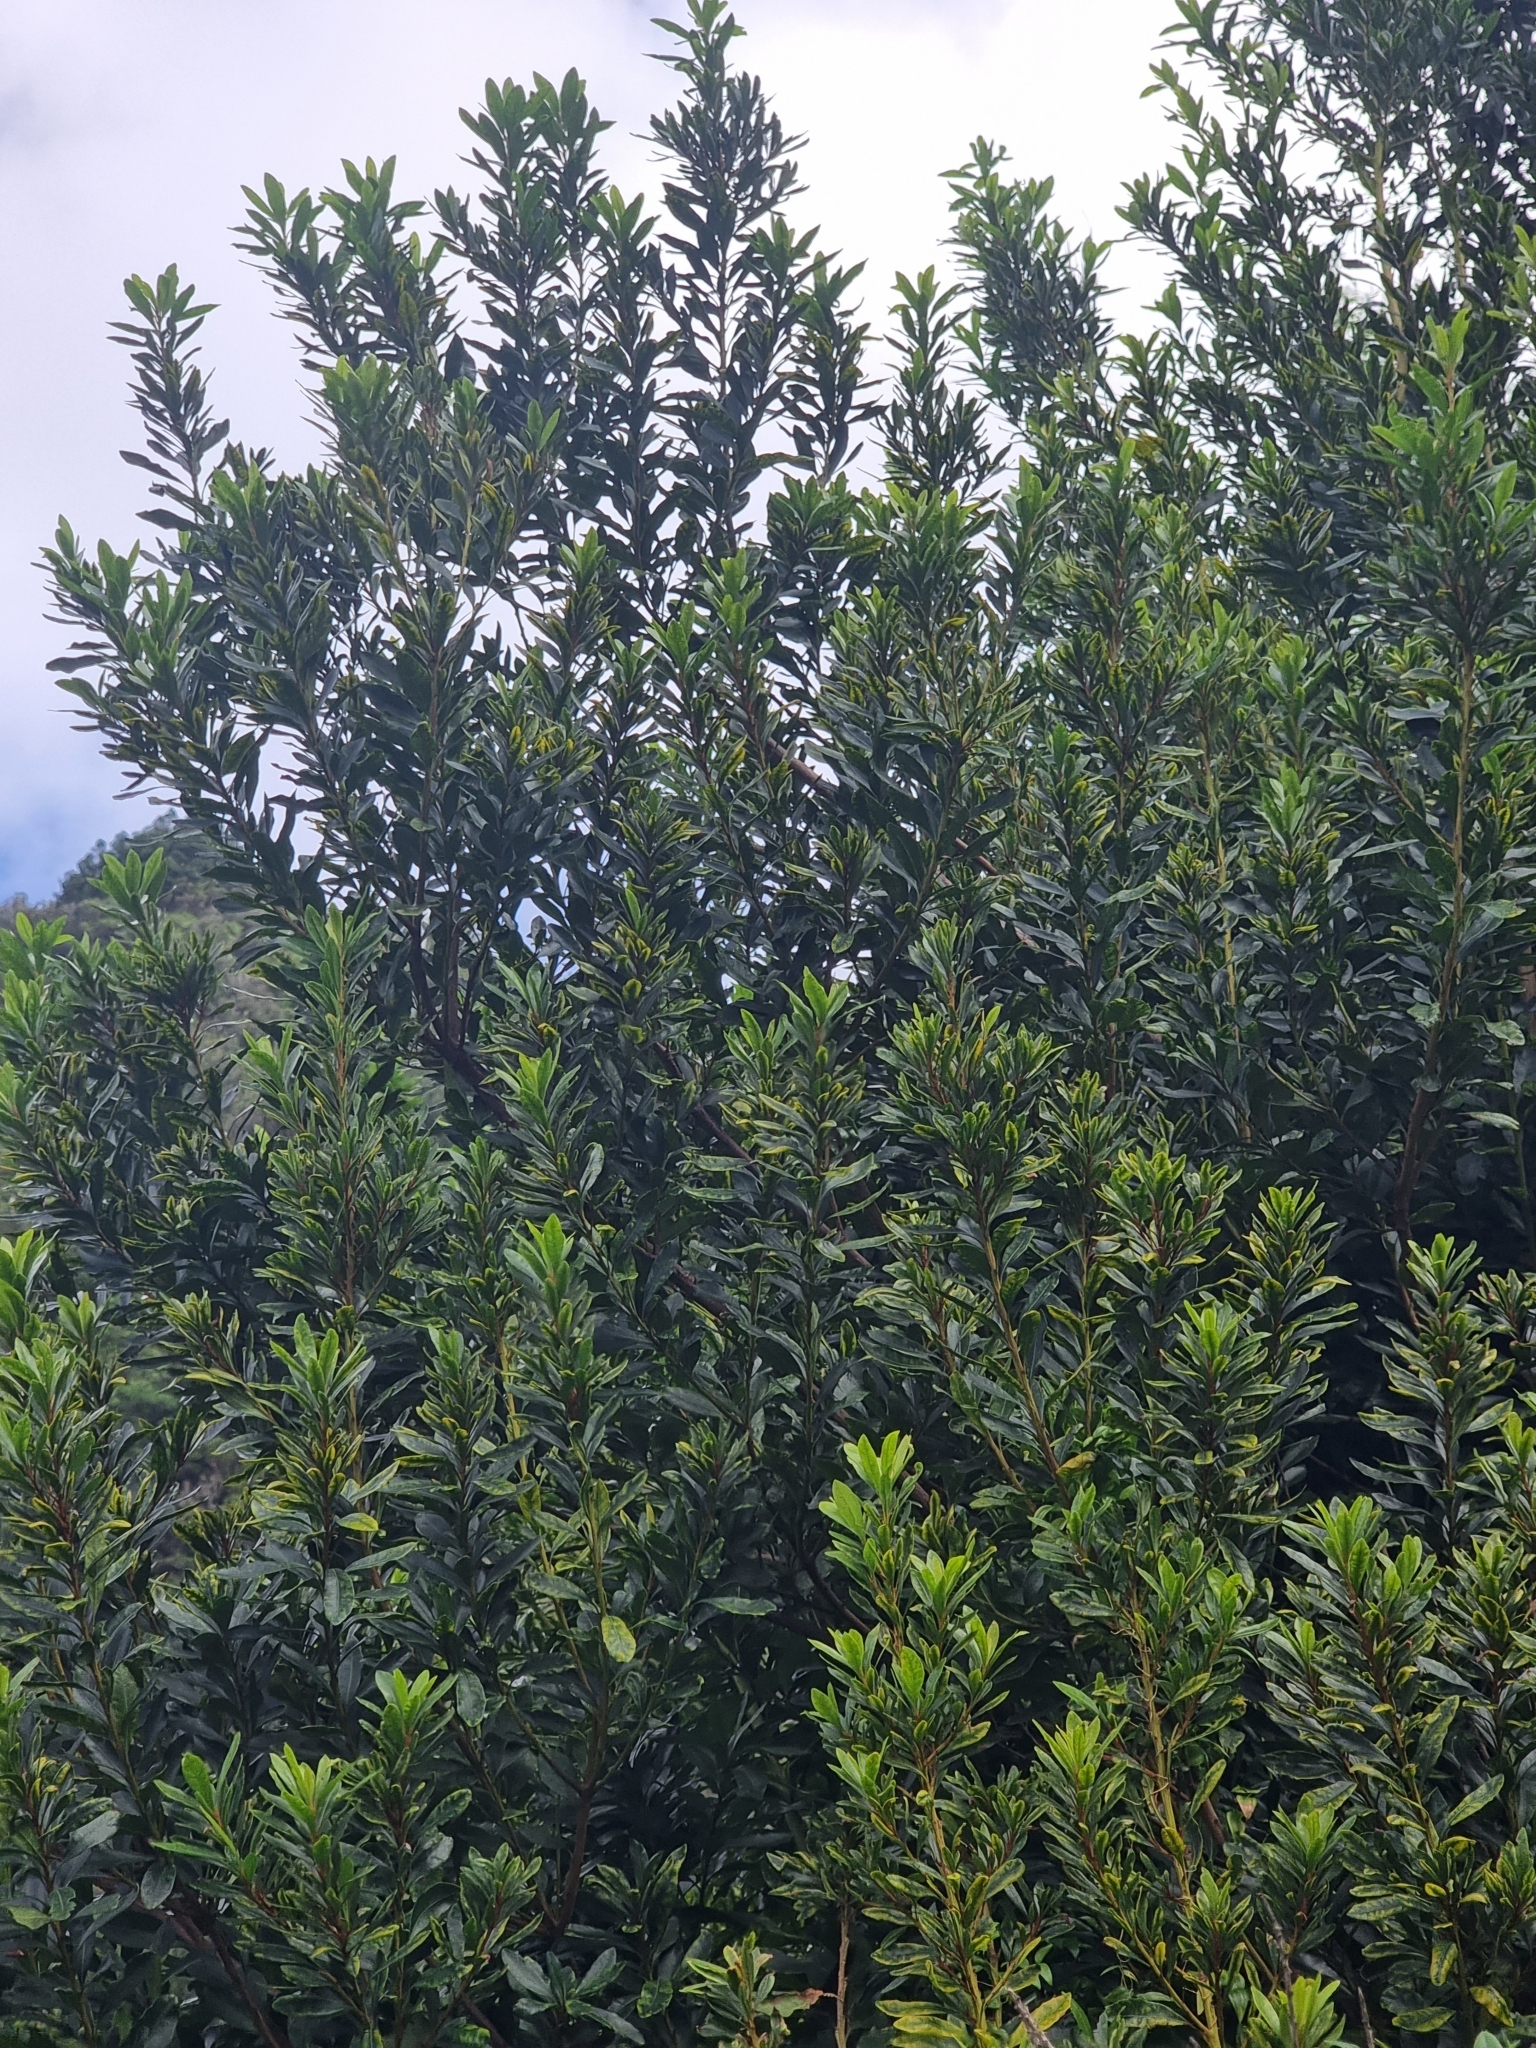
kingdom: Plantae
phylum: Tracheophyta
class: Magnoliopsida
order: Fagales
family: Myricaceae
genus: Morella
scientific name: Morella faya
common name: Firetree
